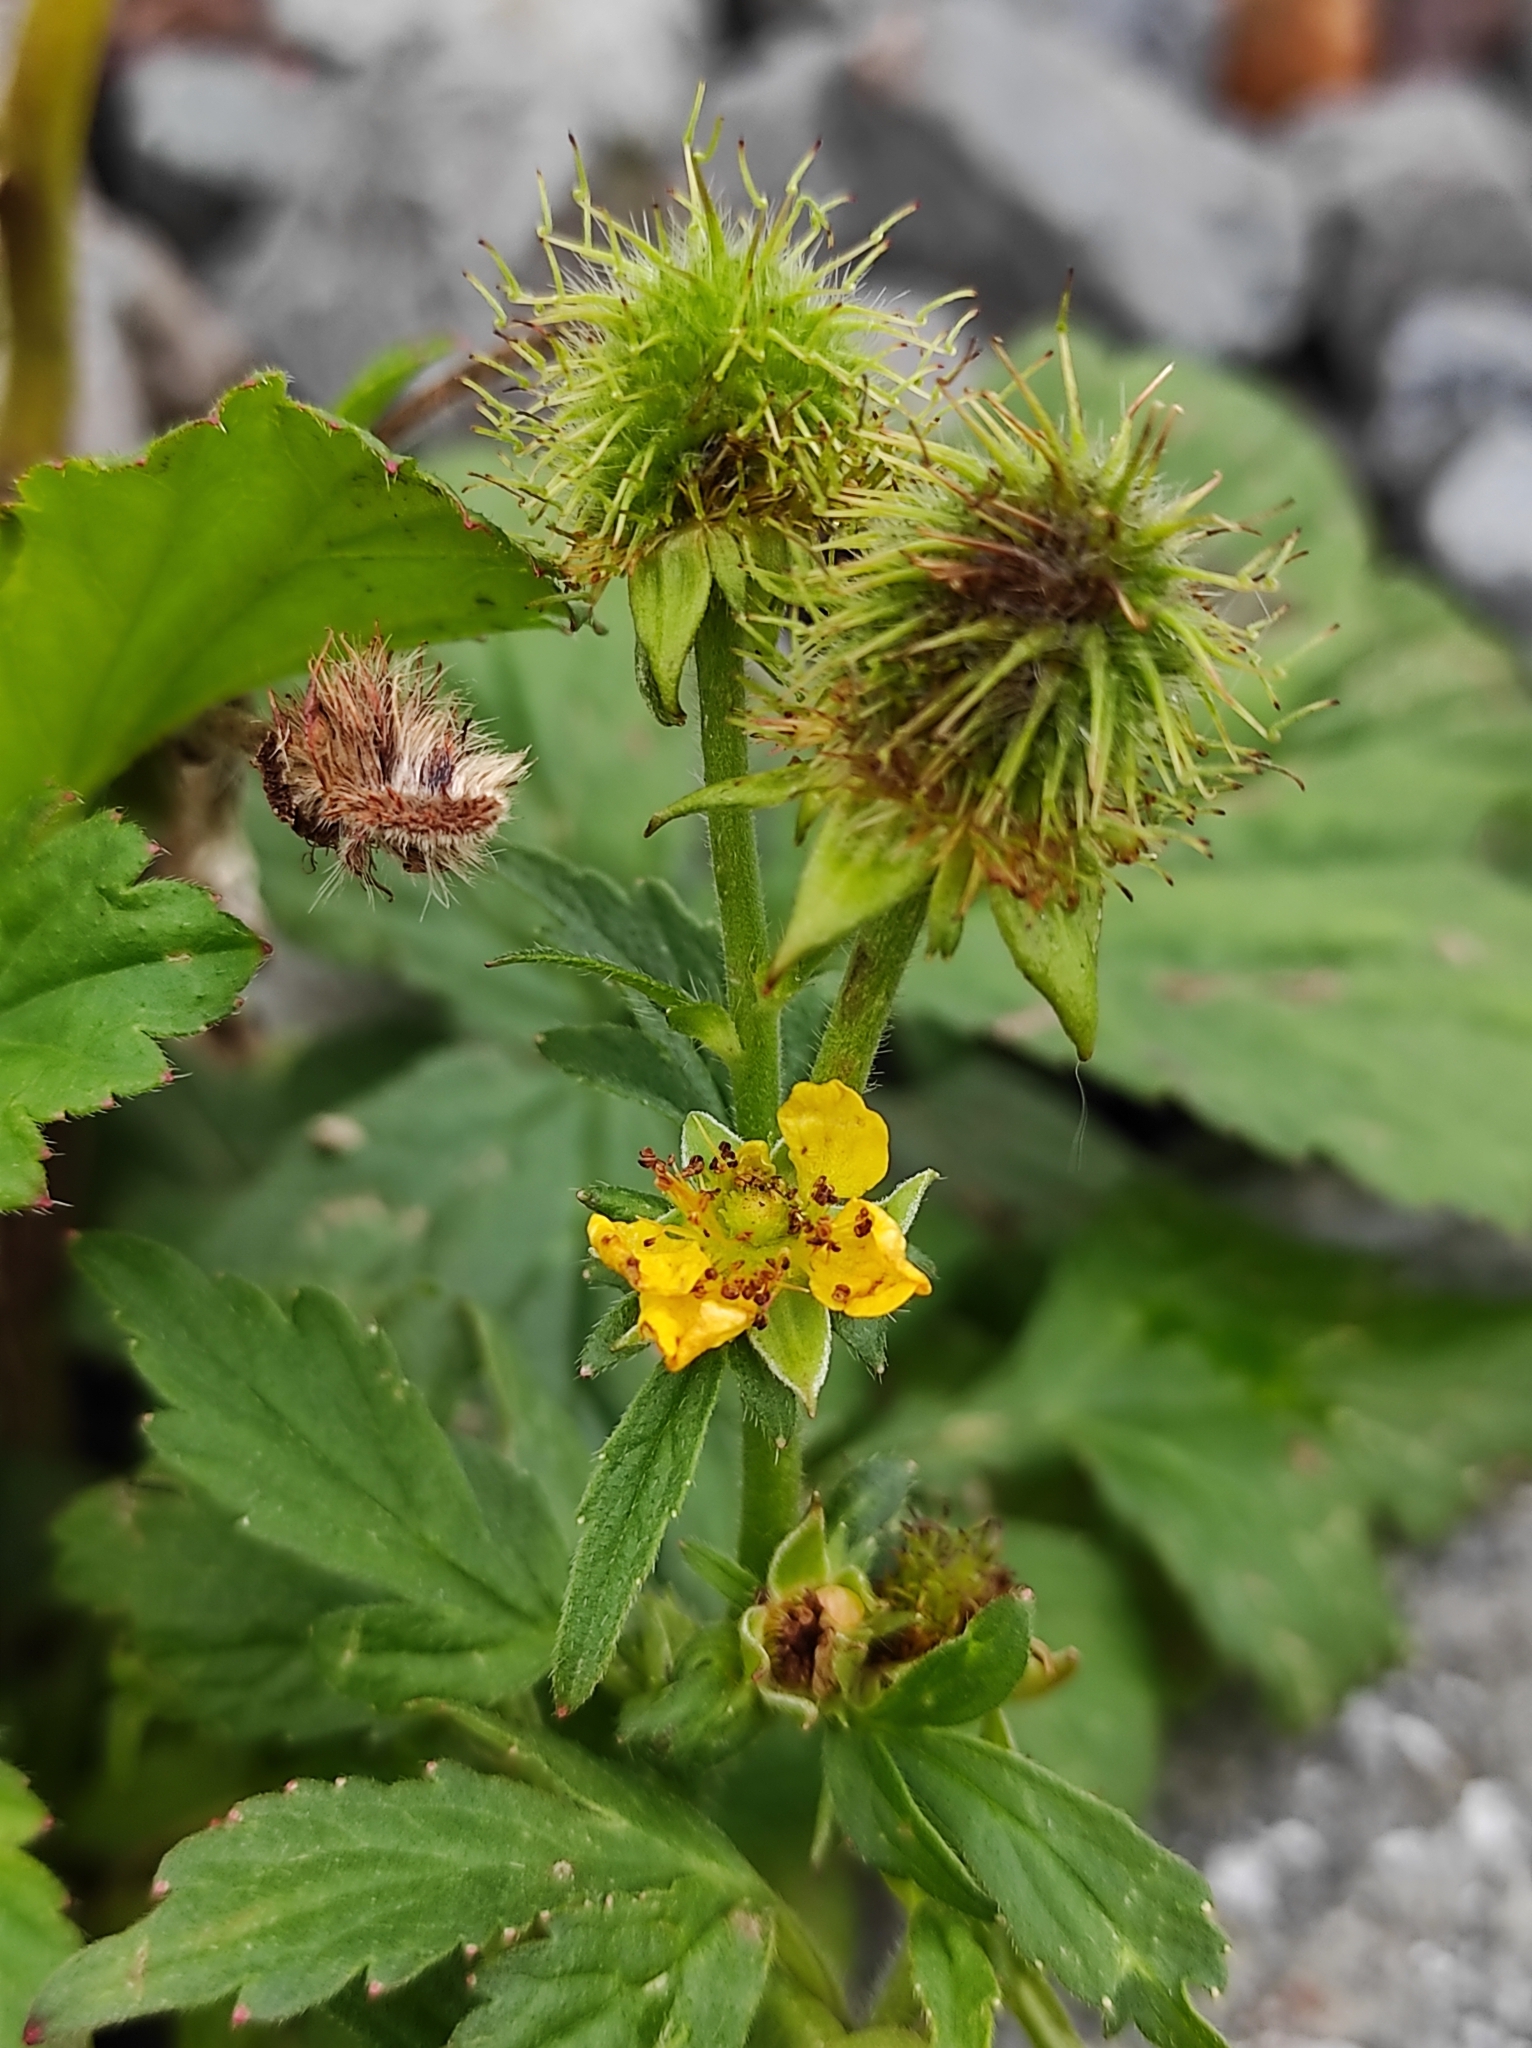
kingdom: Plantae
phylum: Tracheophyta
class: Magnoliopsida
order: Rosales
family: Rosaceae
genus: Geum
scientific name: Geum aleppicum
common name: Yellow avens
